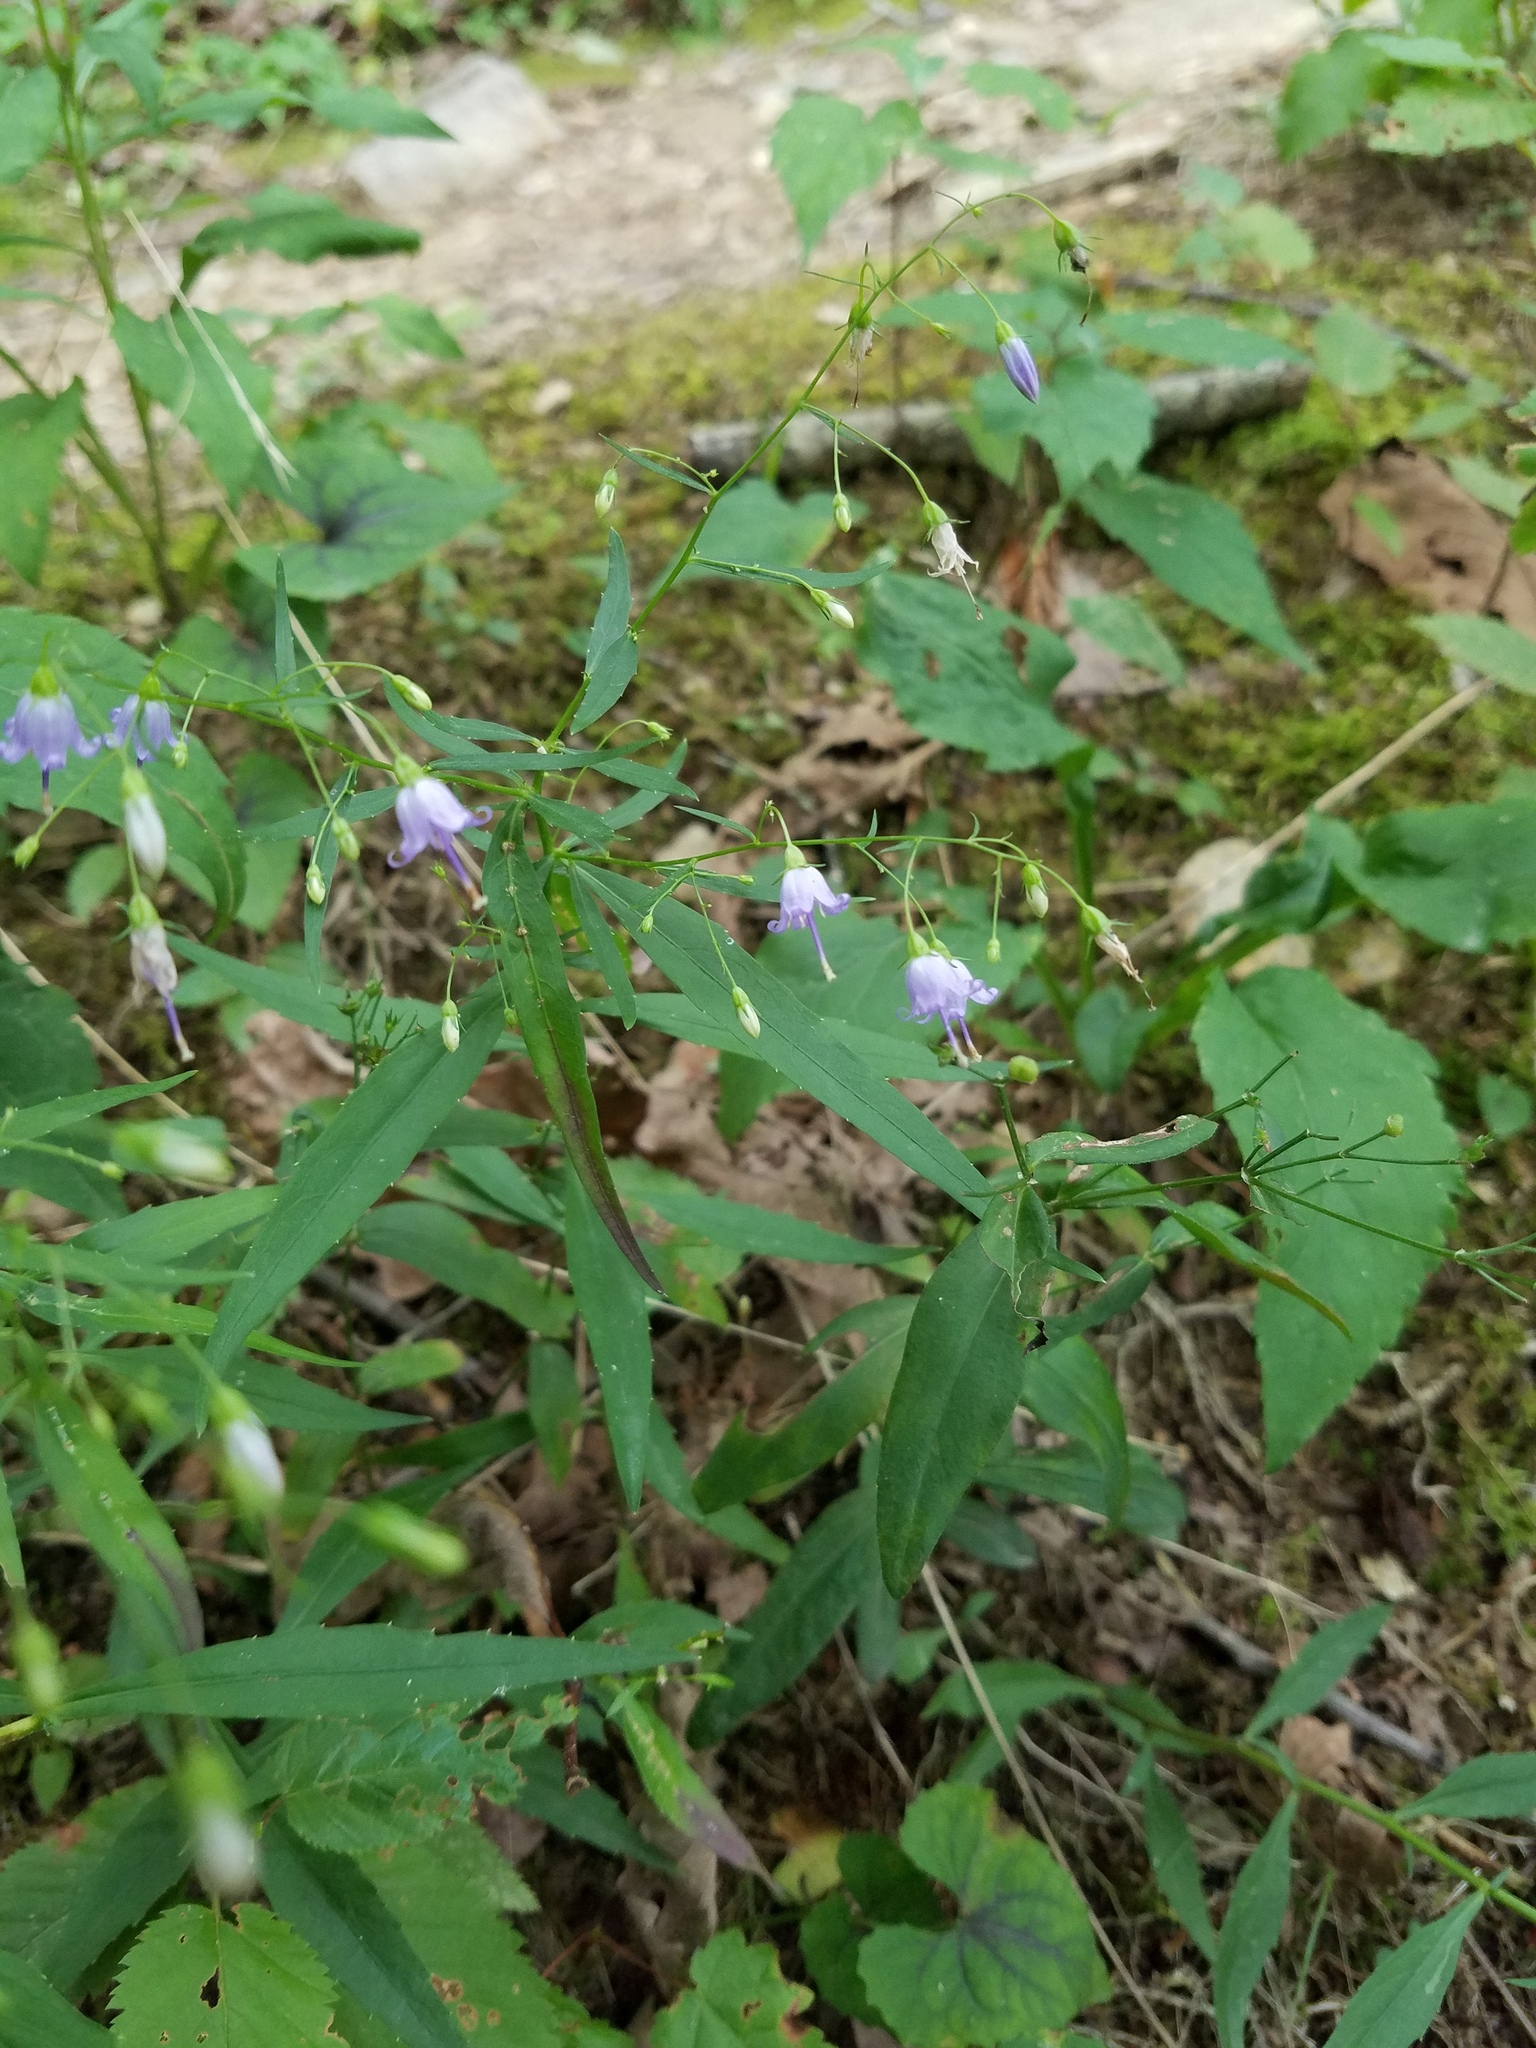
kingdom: Plantae
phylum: Tracheophyta
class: Magnoliopsida
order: Asterales
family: Campanulaceae
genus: Campanula
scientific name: Campanula divaricata
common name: Appalachian bellflower
